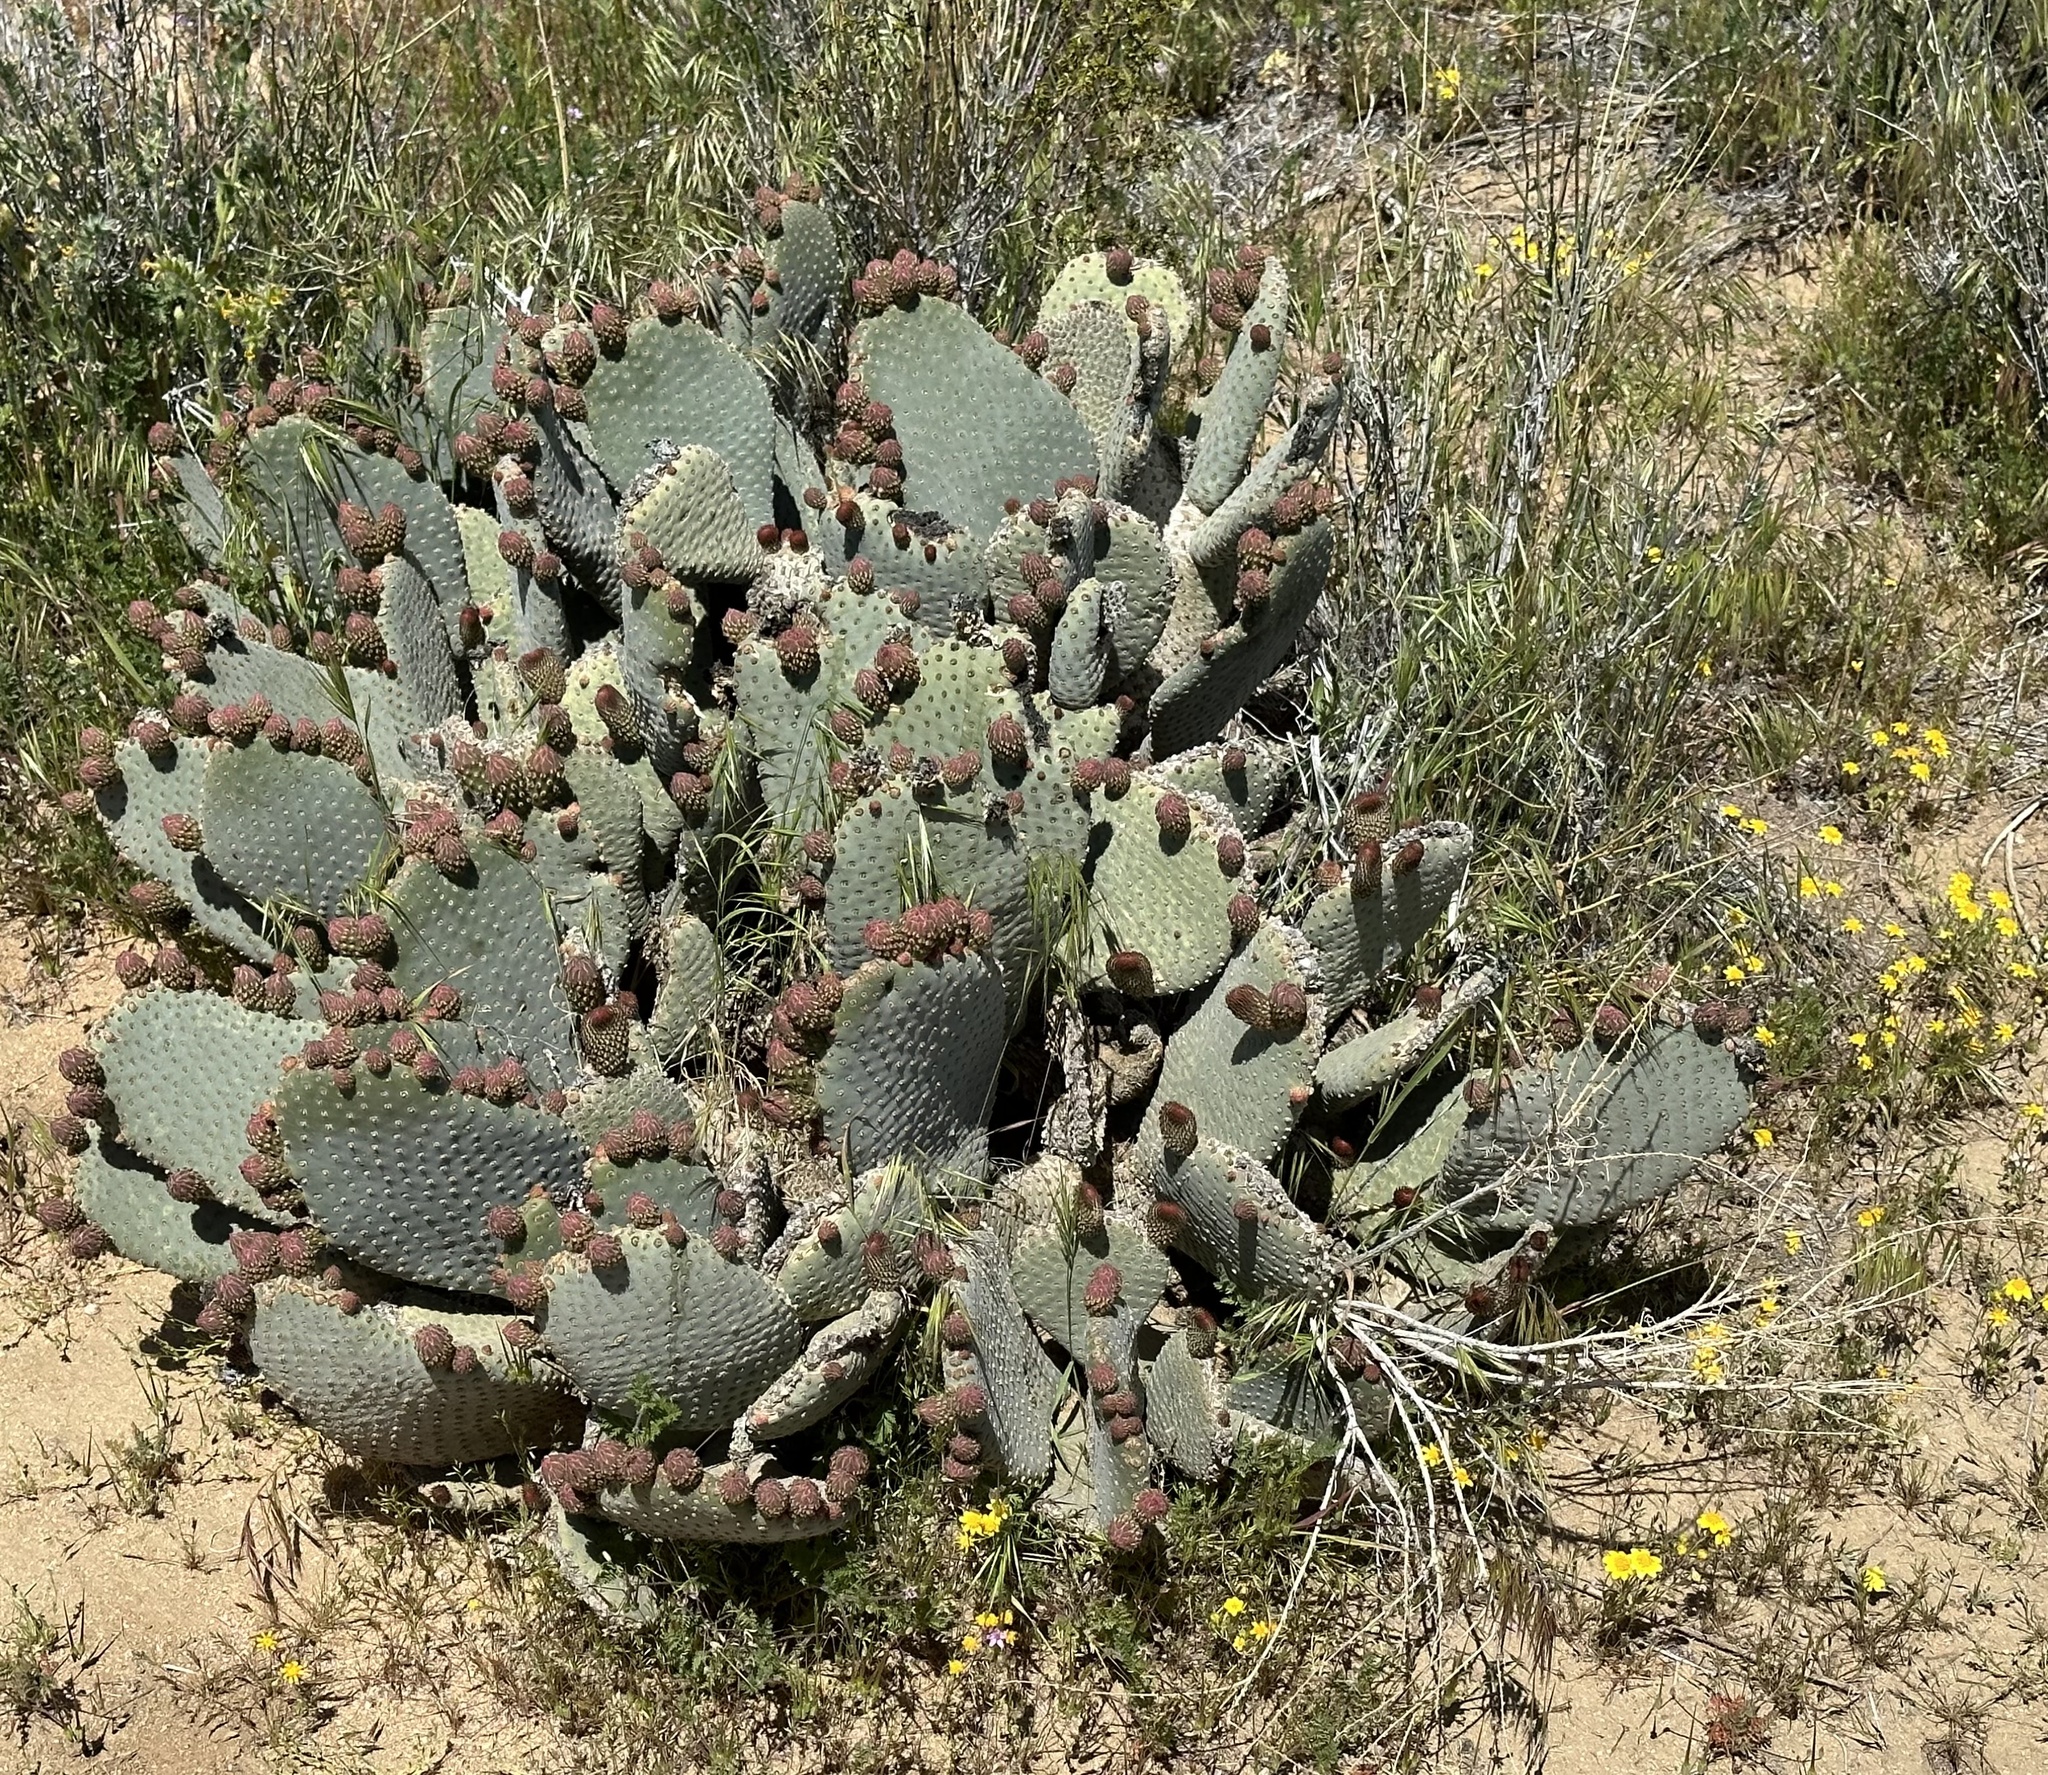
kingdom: Plantae
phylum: Tracheophyta
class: Magnoliopsida
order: Caryophyllales
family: Cactaceae
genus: Opuntia
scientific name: Opuntia basilaris
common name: Beavertail prickly-pear
